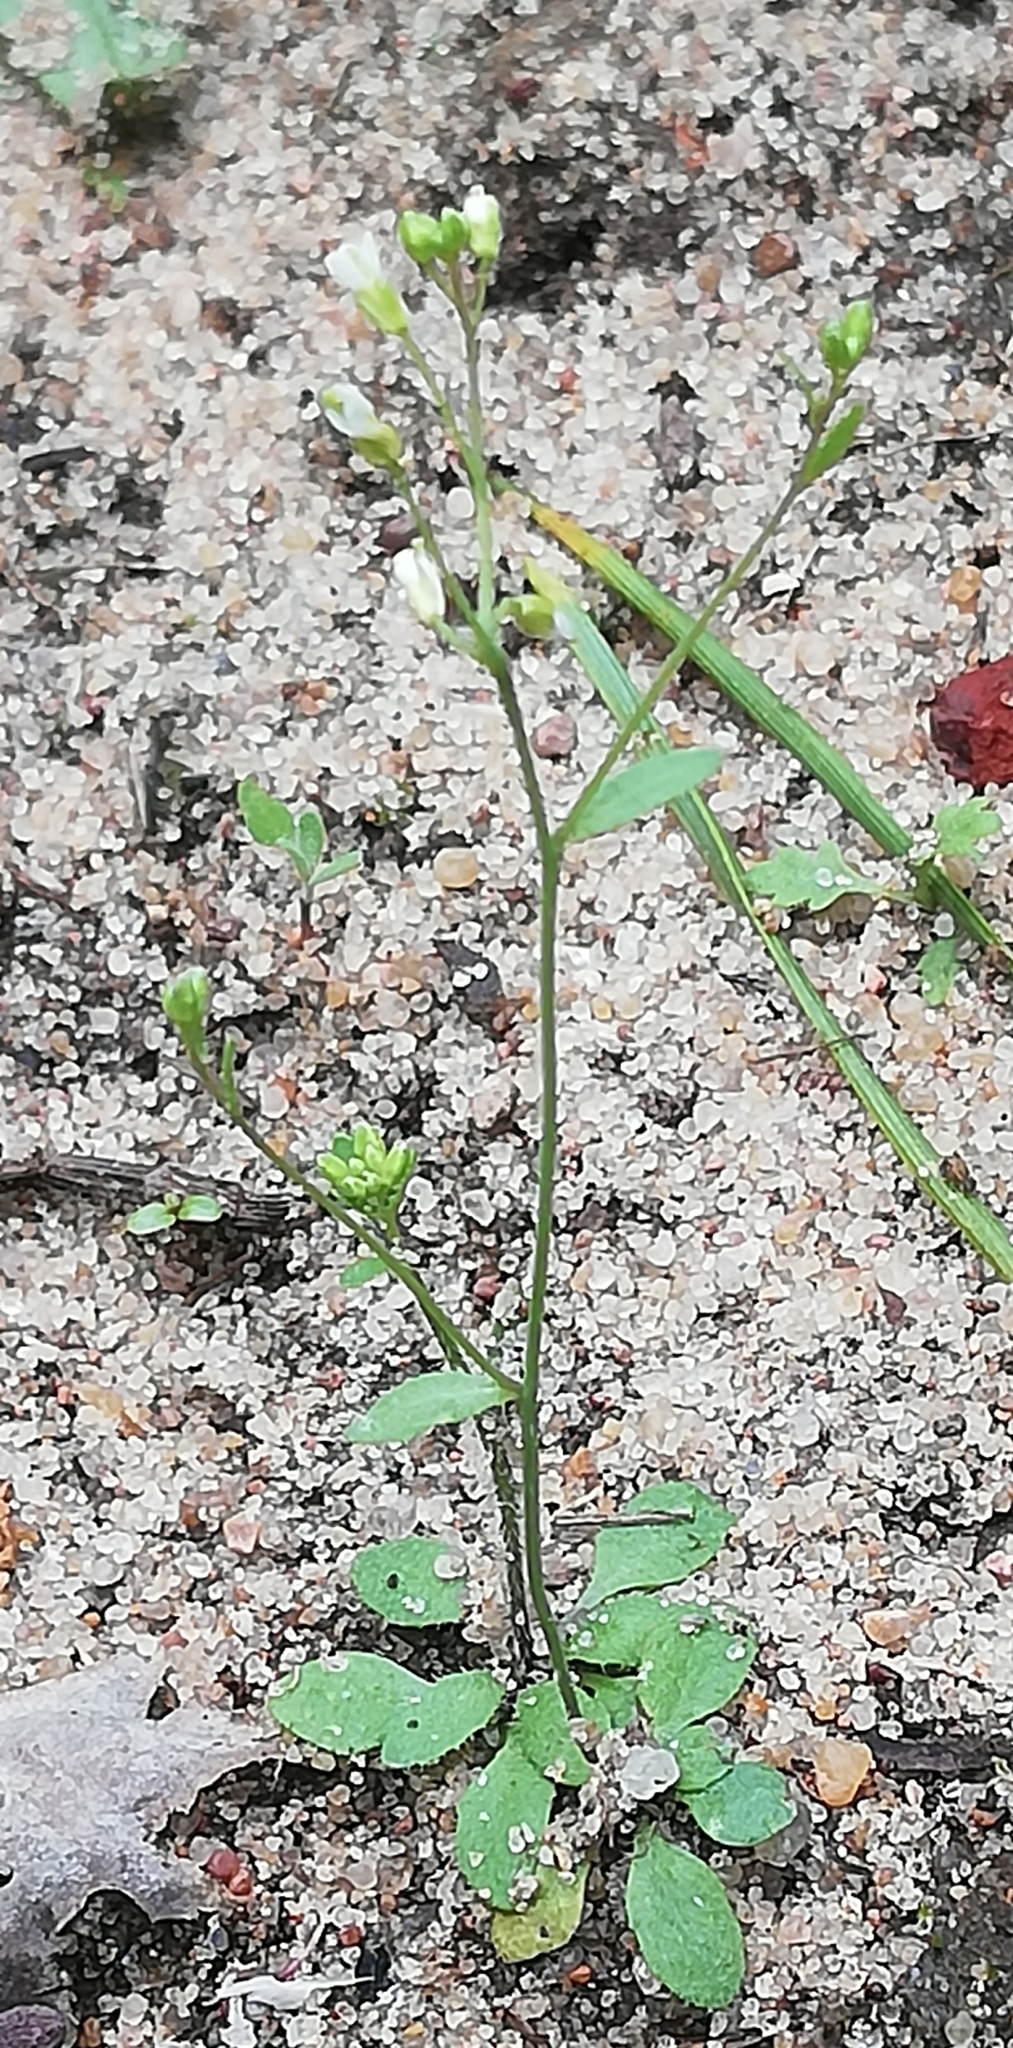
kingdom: Plantae
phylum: Tracheophyta
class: Magnoliopsida
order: Brassicales
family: Brassicaceae
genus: Arabidopsis
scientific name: Arabidopsis thaliana
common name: Thale cress
